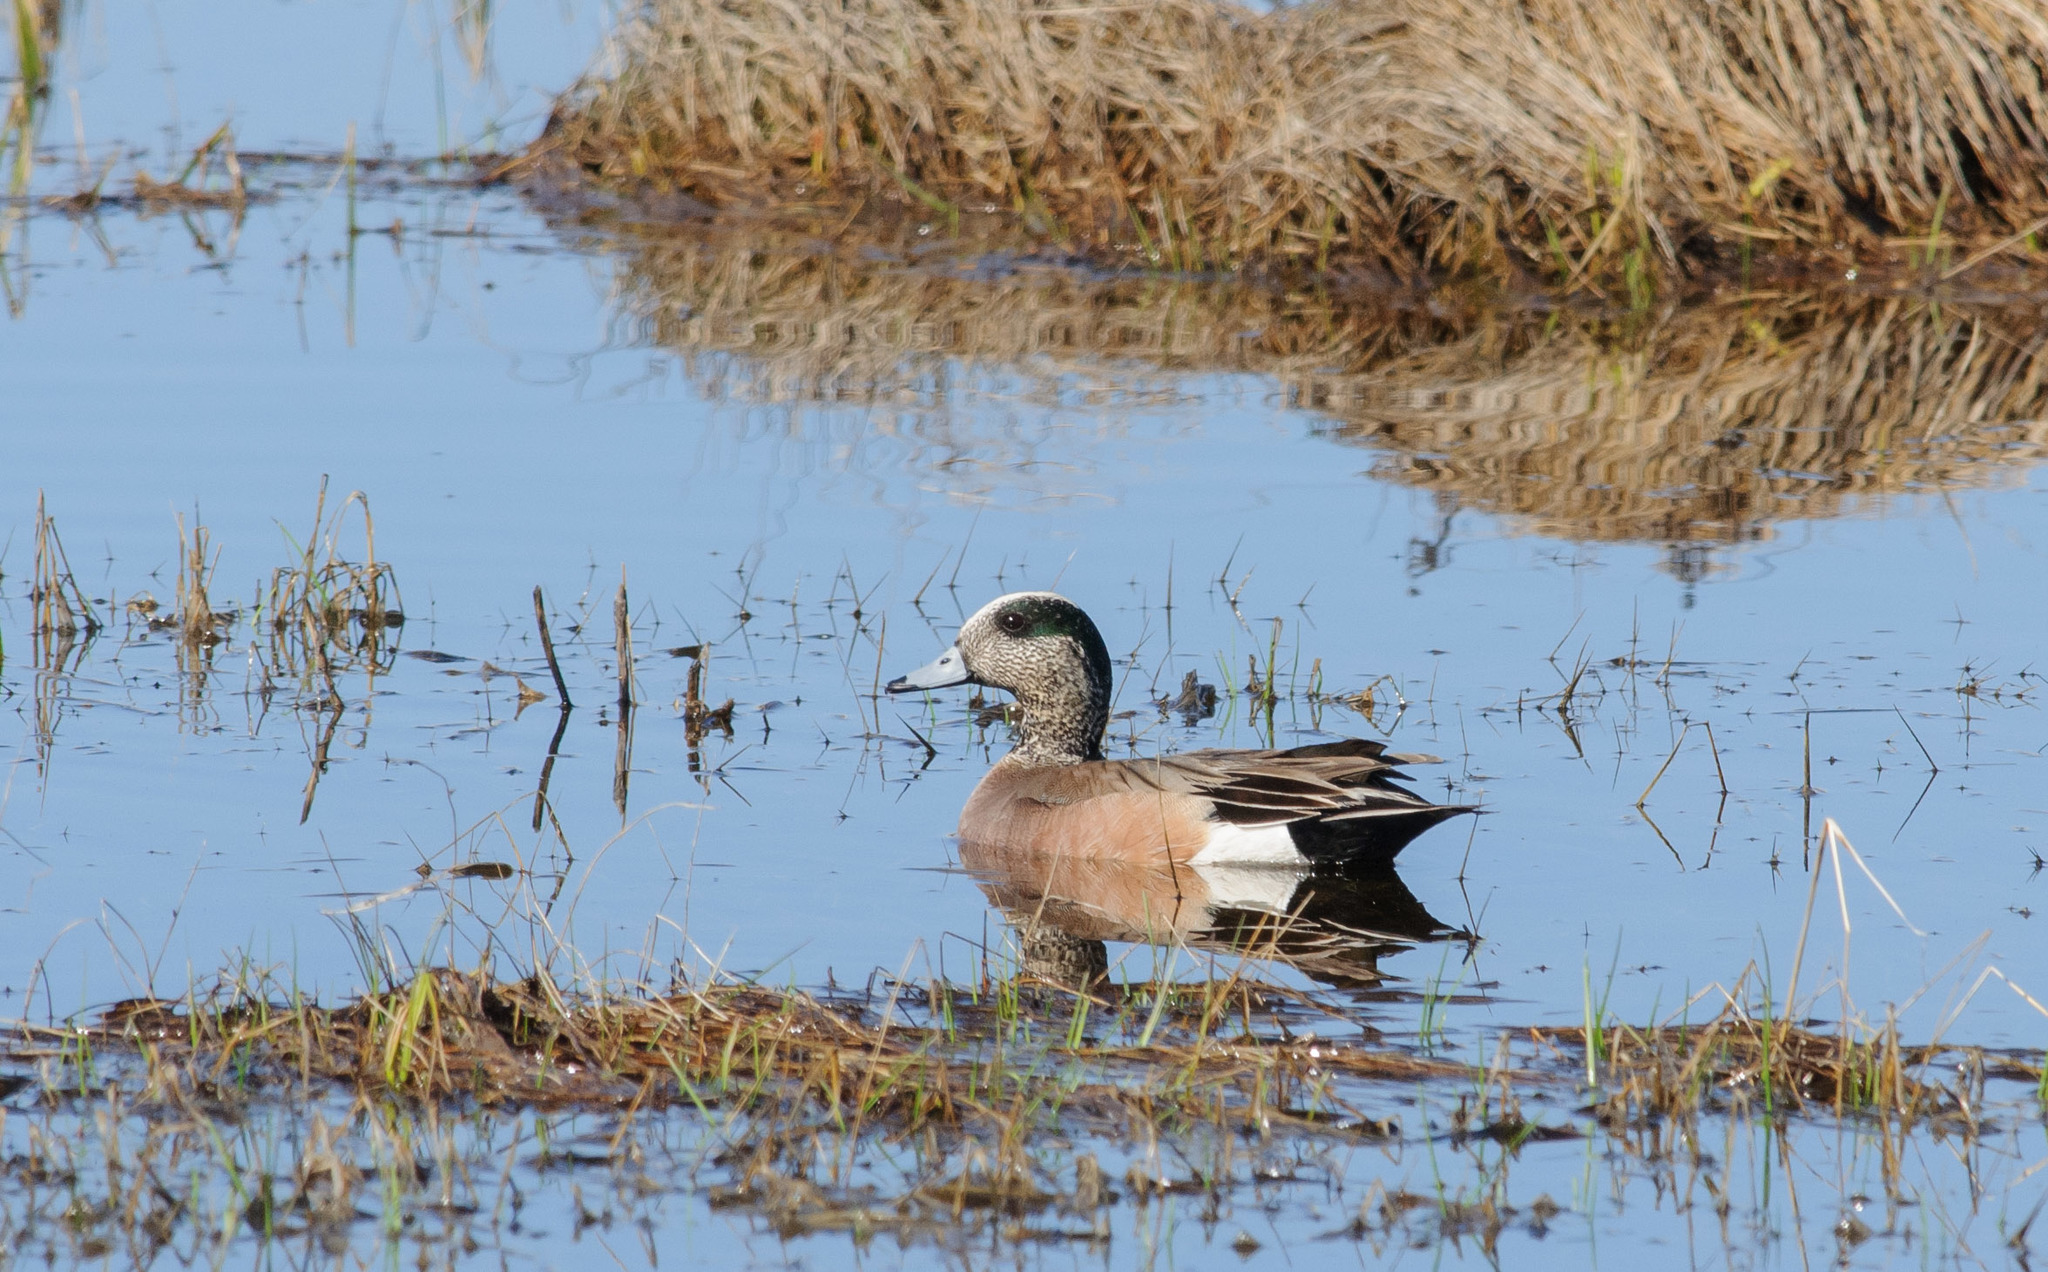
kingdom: Animalia
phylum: Chordata
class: Aves
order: Anseriformes
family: Anatidae
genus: Mareca
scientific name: Mareca americana
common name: American wigeon
